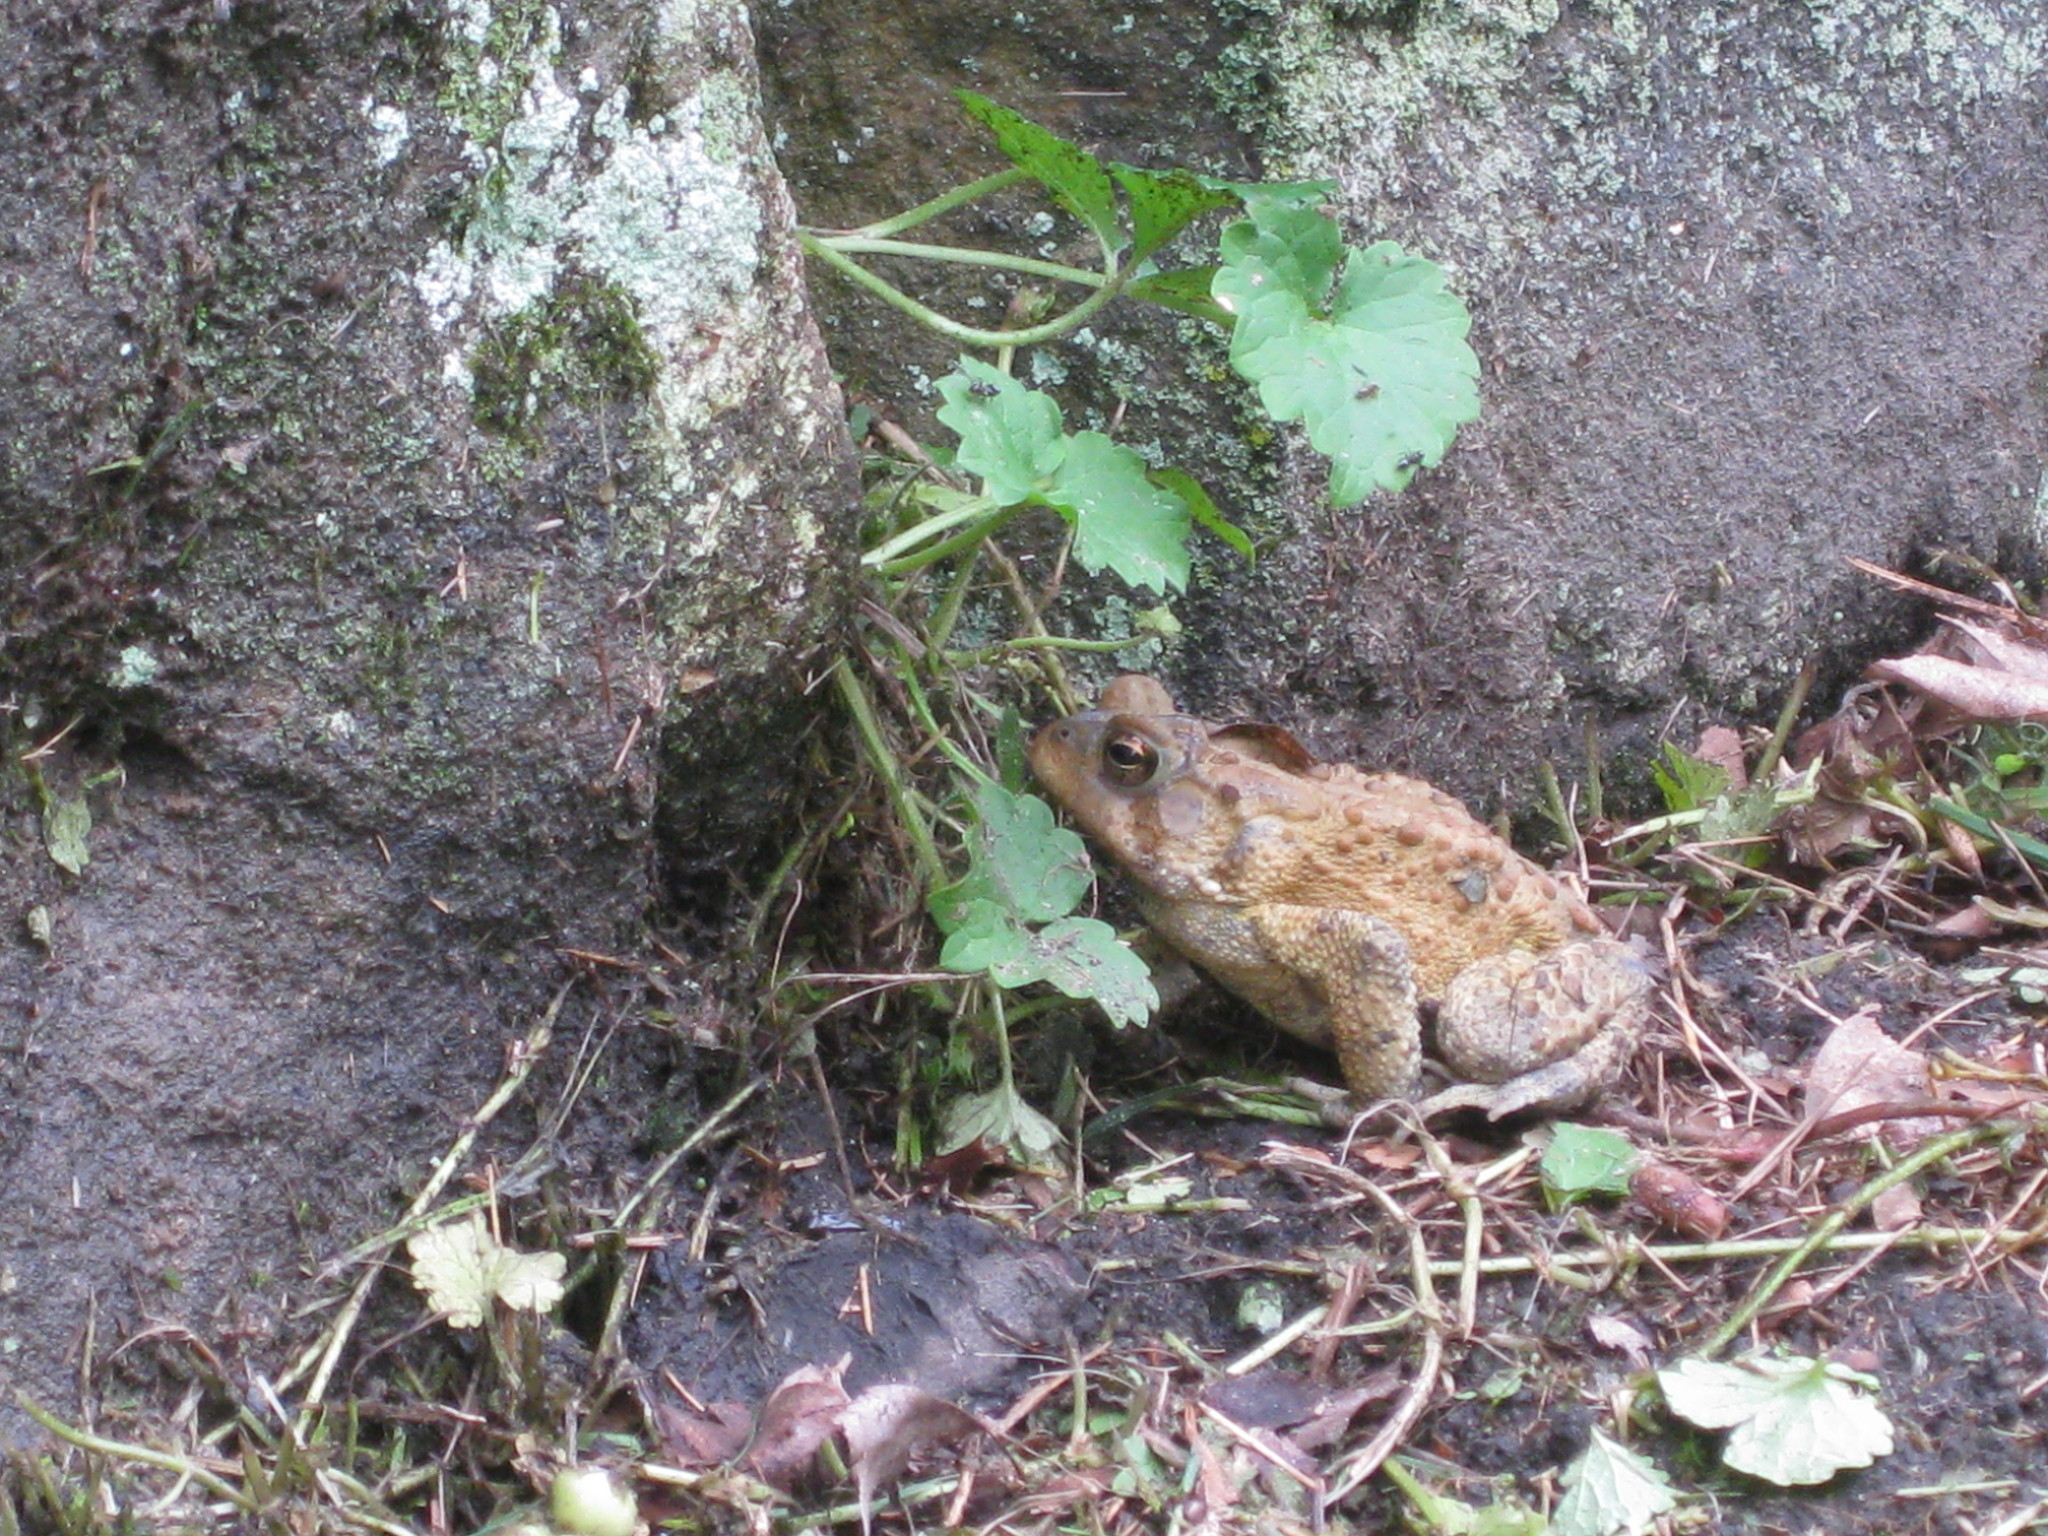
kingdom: Animalia
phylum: Chordata
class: Amphibia
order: Anura
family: Bufonidae
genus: Anaxyrus
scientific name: Anaxyrus americanus
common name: American toad
